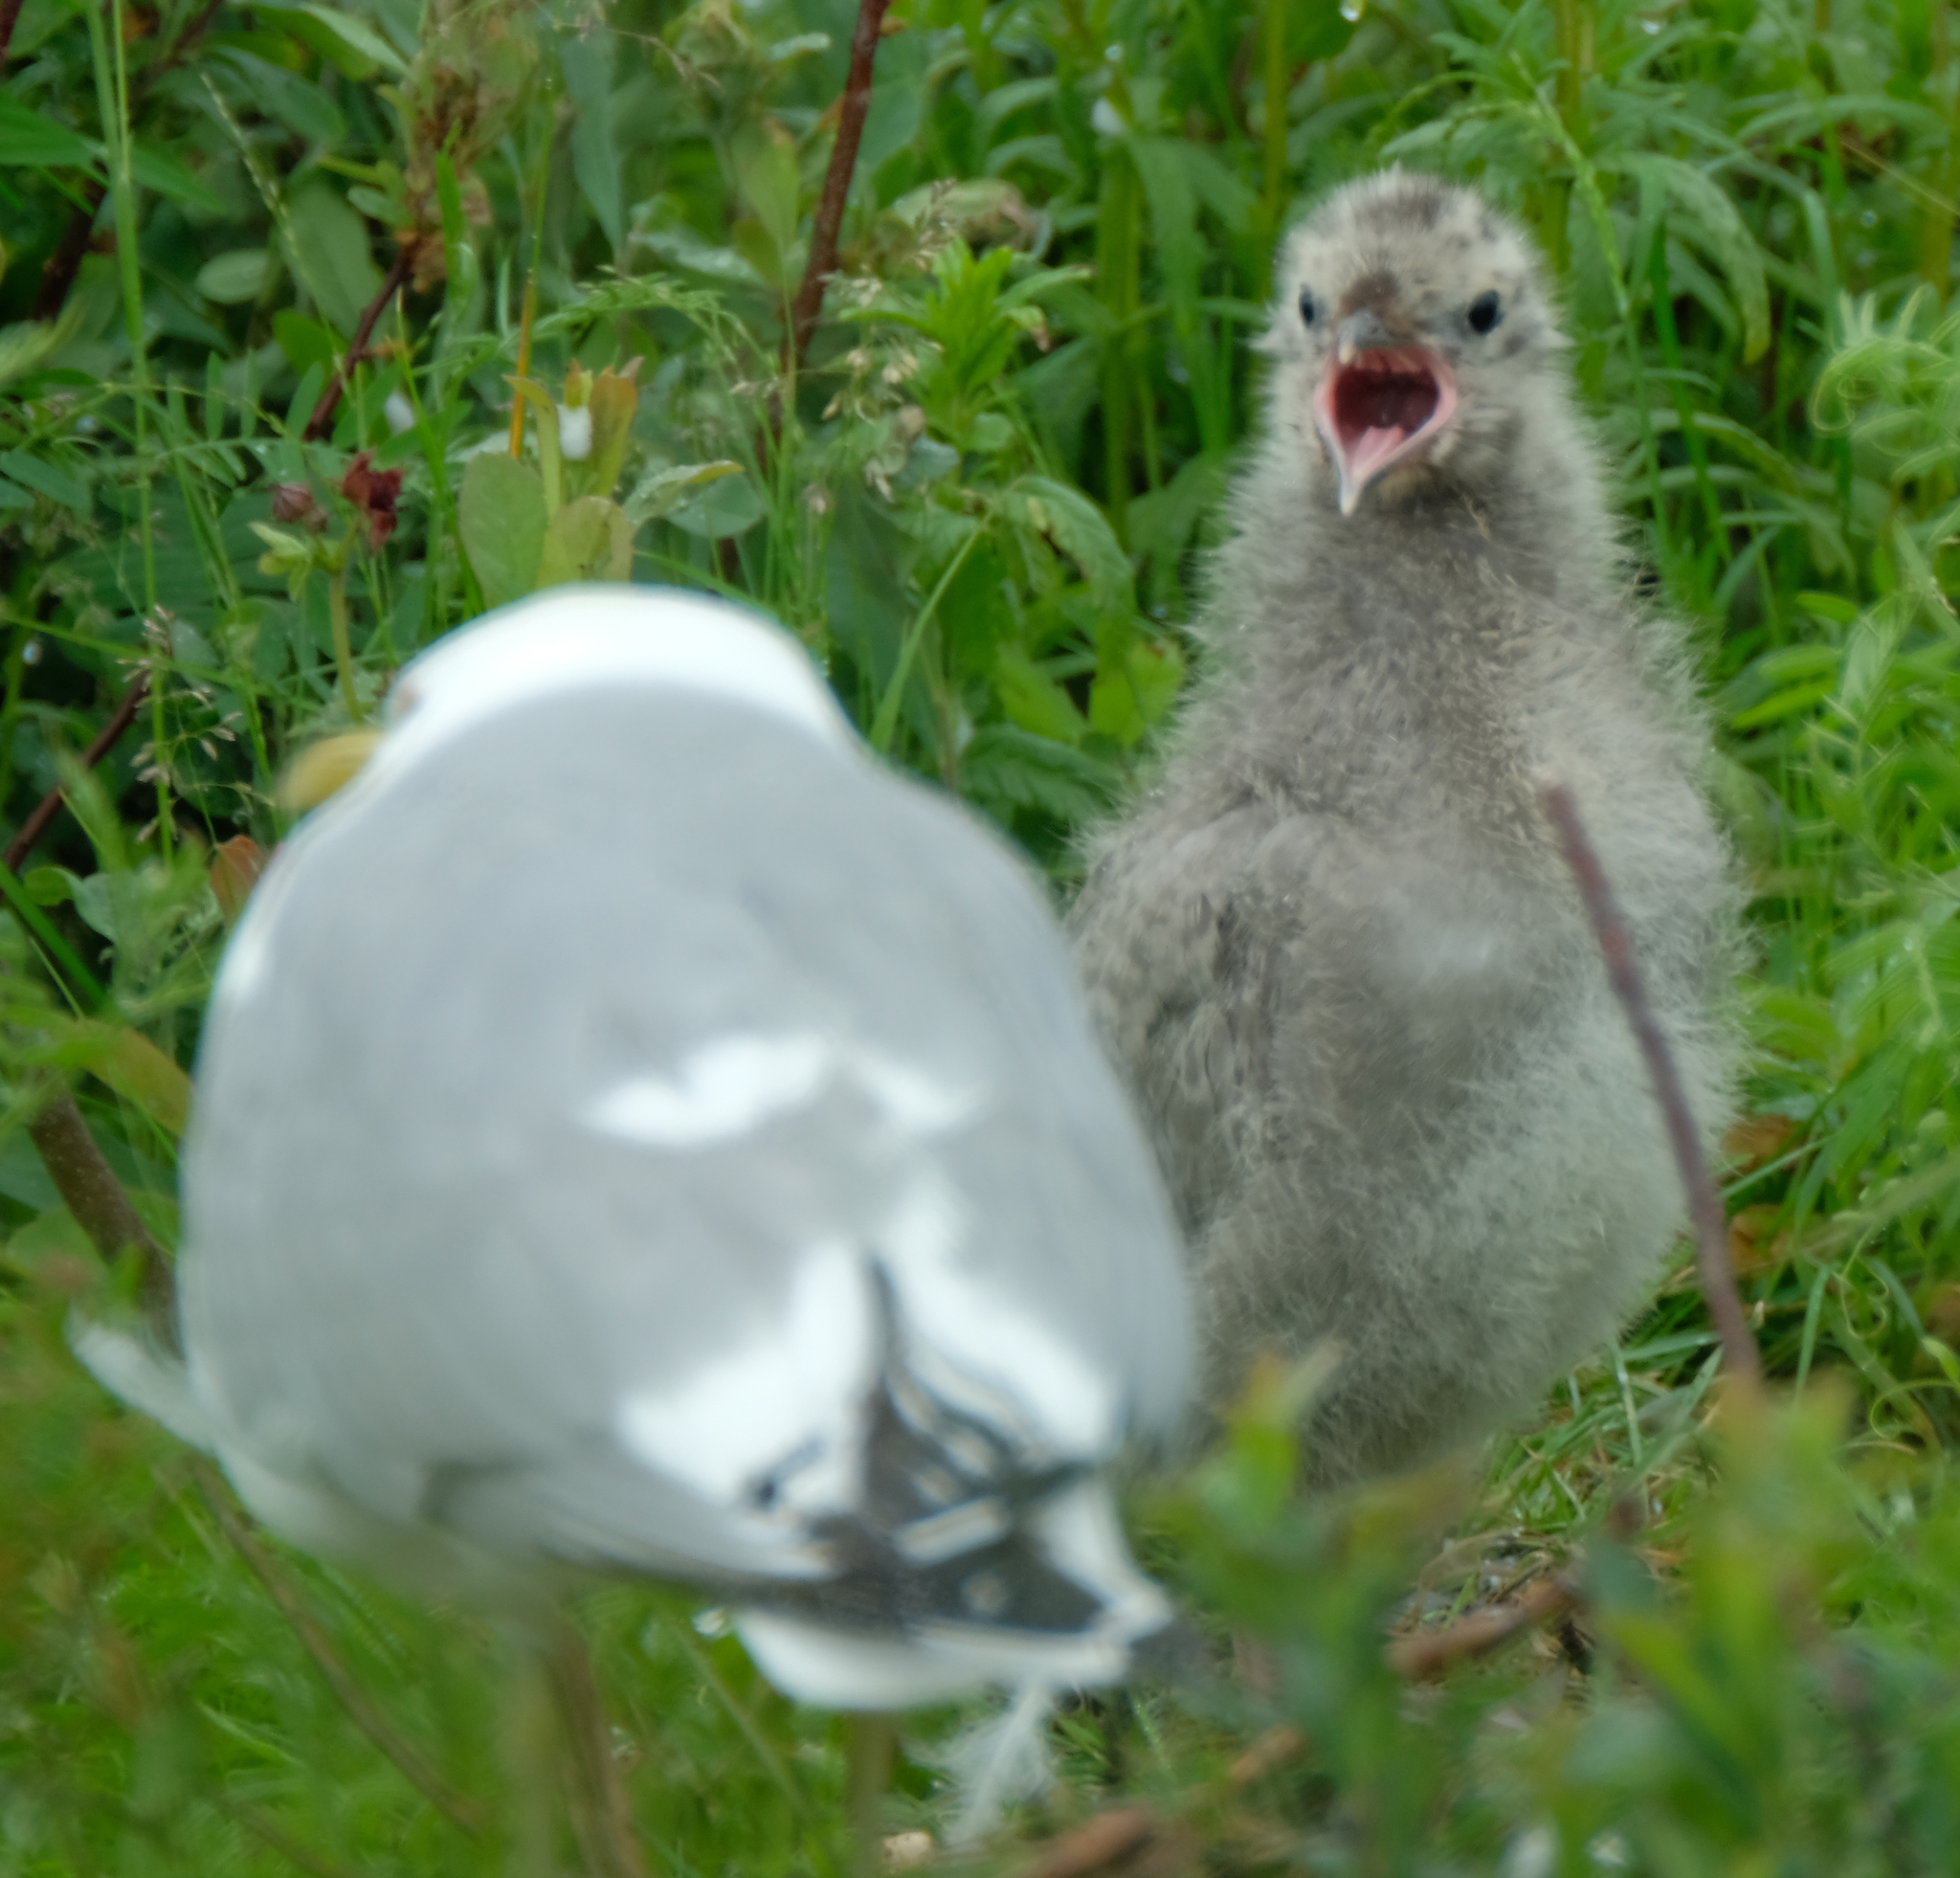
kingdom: Animalia
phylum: Chordata
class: Aves
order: Charadriiformes
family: Laridae
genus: Larus
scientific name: Larus brachyrhynchus
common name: Short-billed gull
